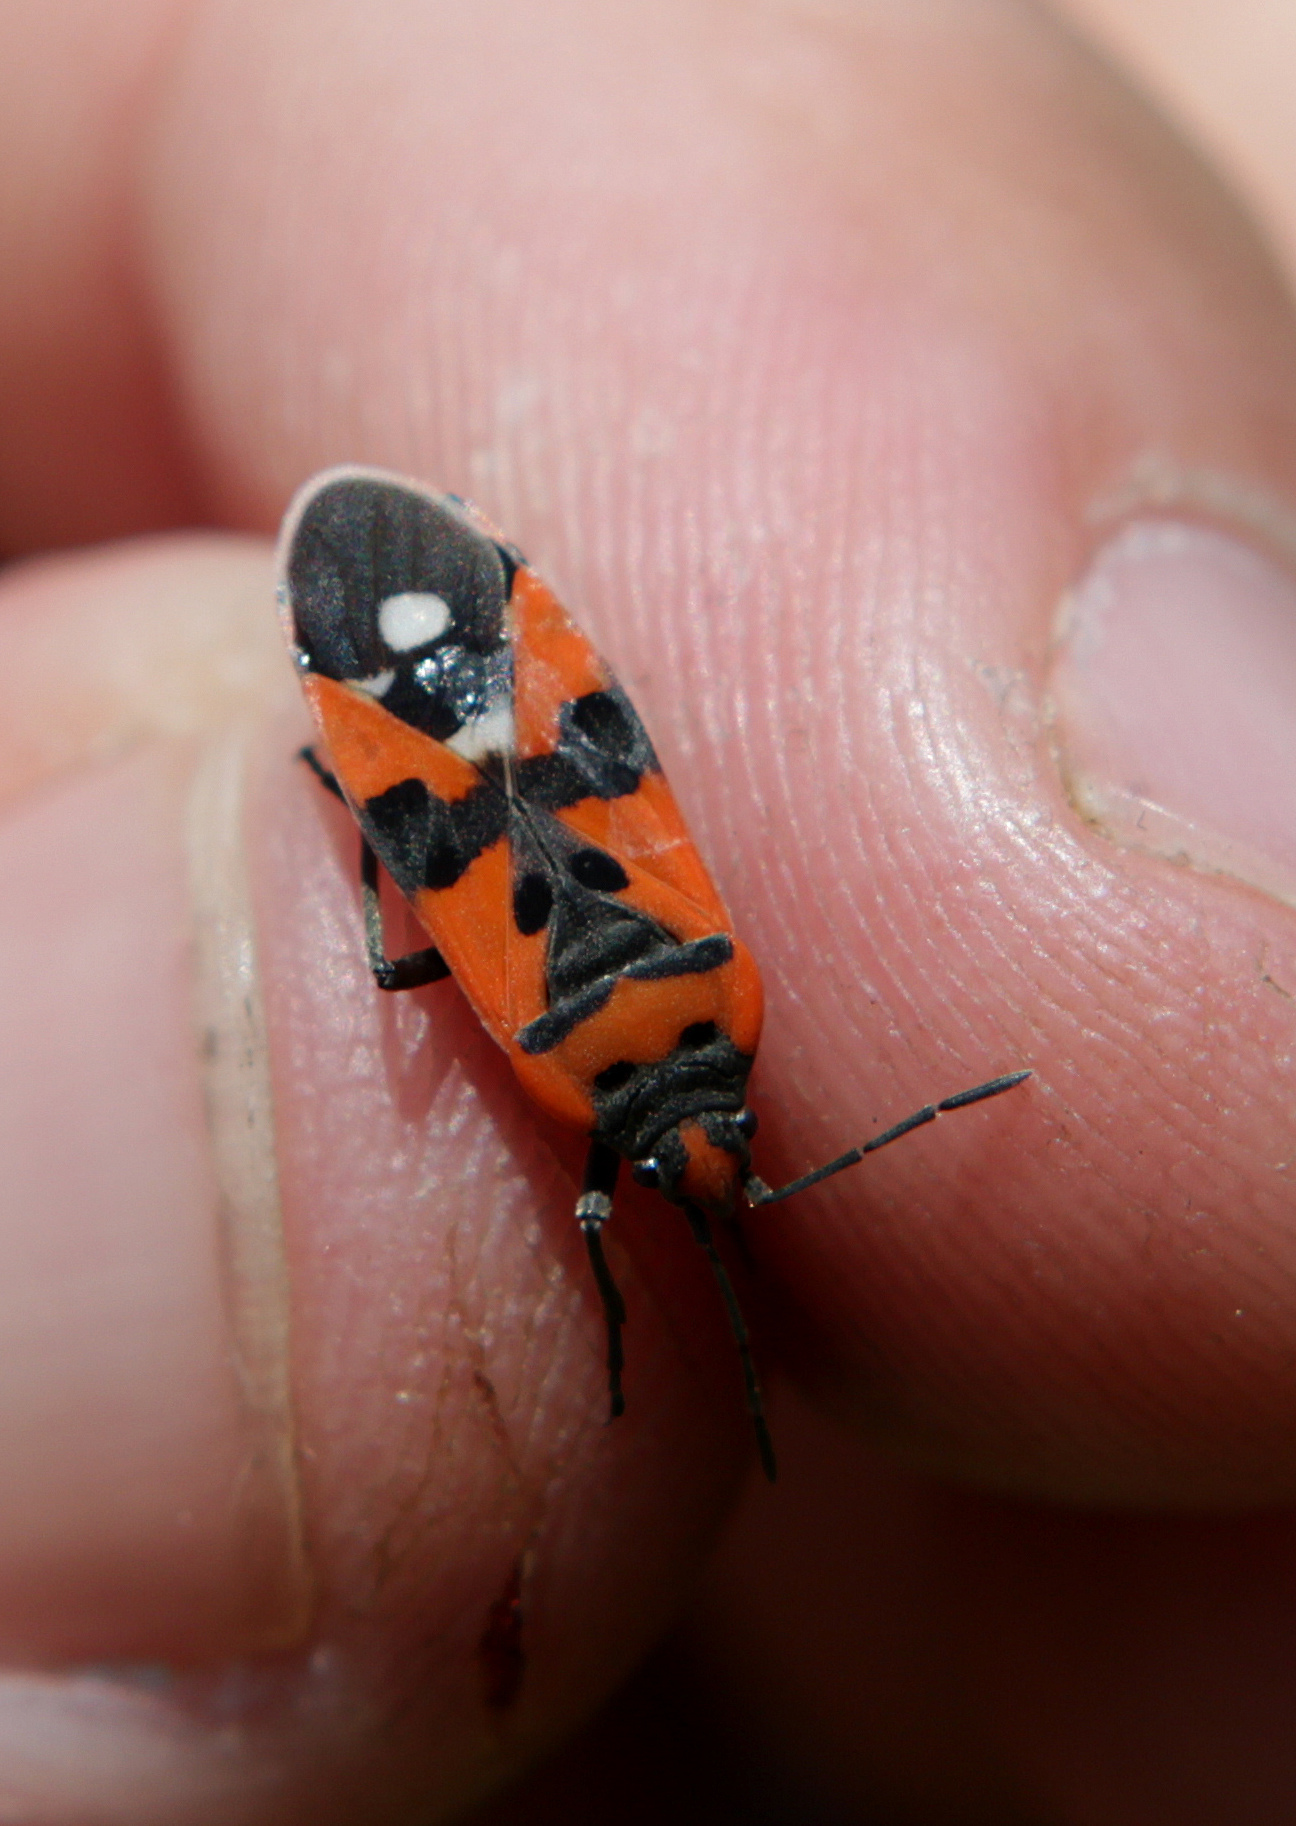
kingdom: Animalia
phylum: Arthropoda
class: Insecta
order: Hemiptera
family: Lygaeidae
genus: Lygaeus
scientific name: Lygaeus equestris
